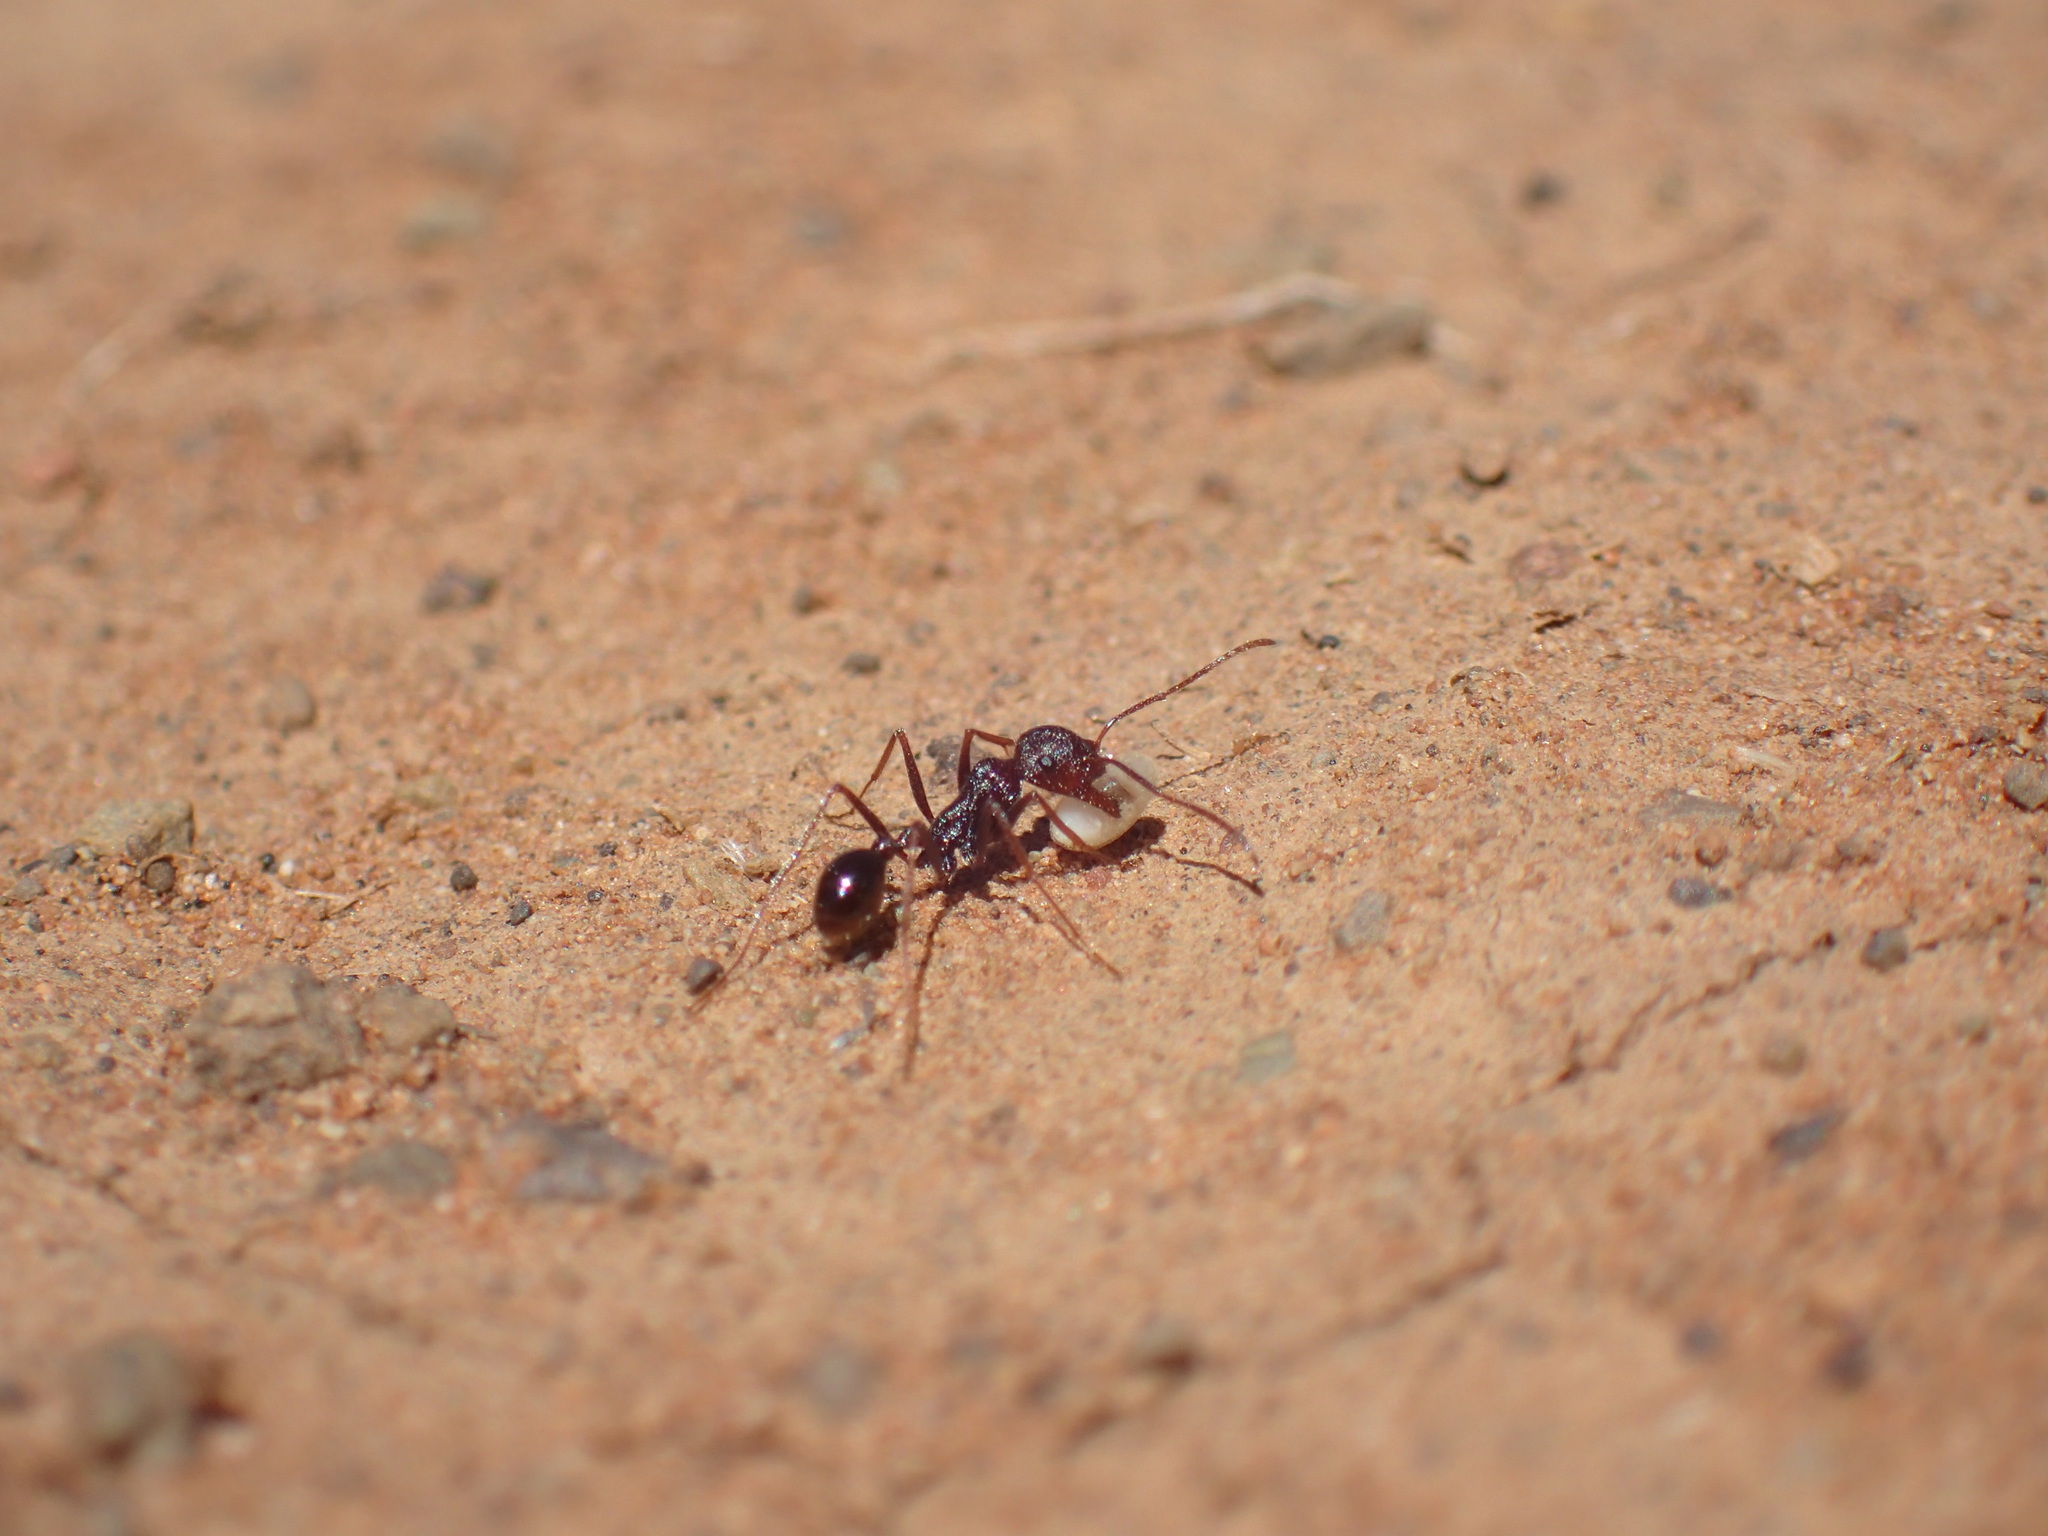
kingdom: Animalia
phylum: Arthropoda
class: Insecta
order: Hymenoptera
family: Formicidae
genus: Ocymyrmex
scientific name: Ocymyrmex barbiger
